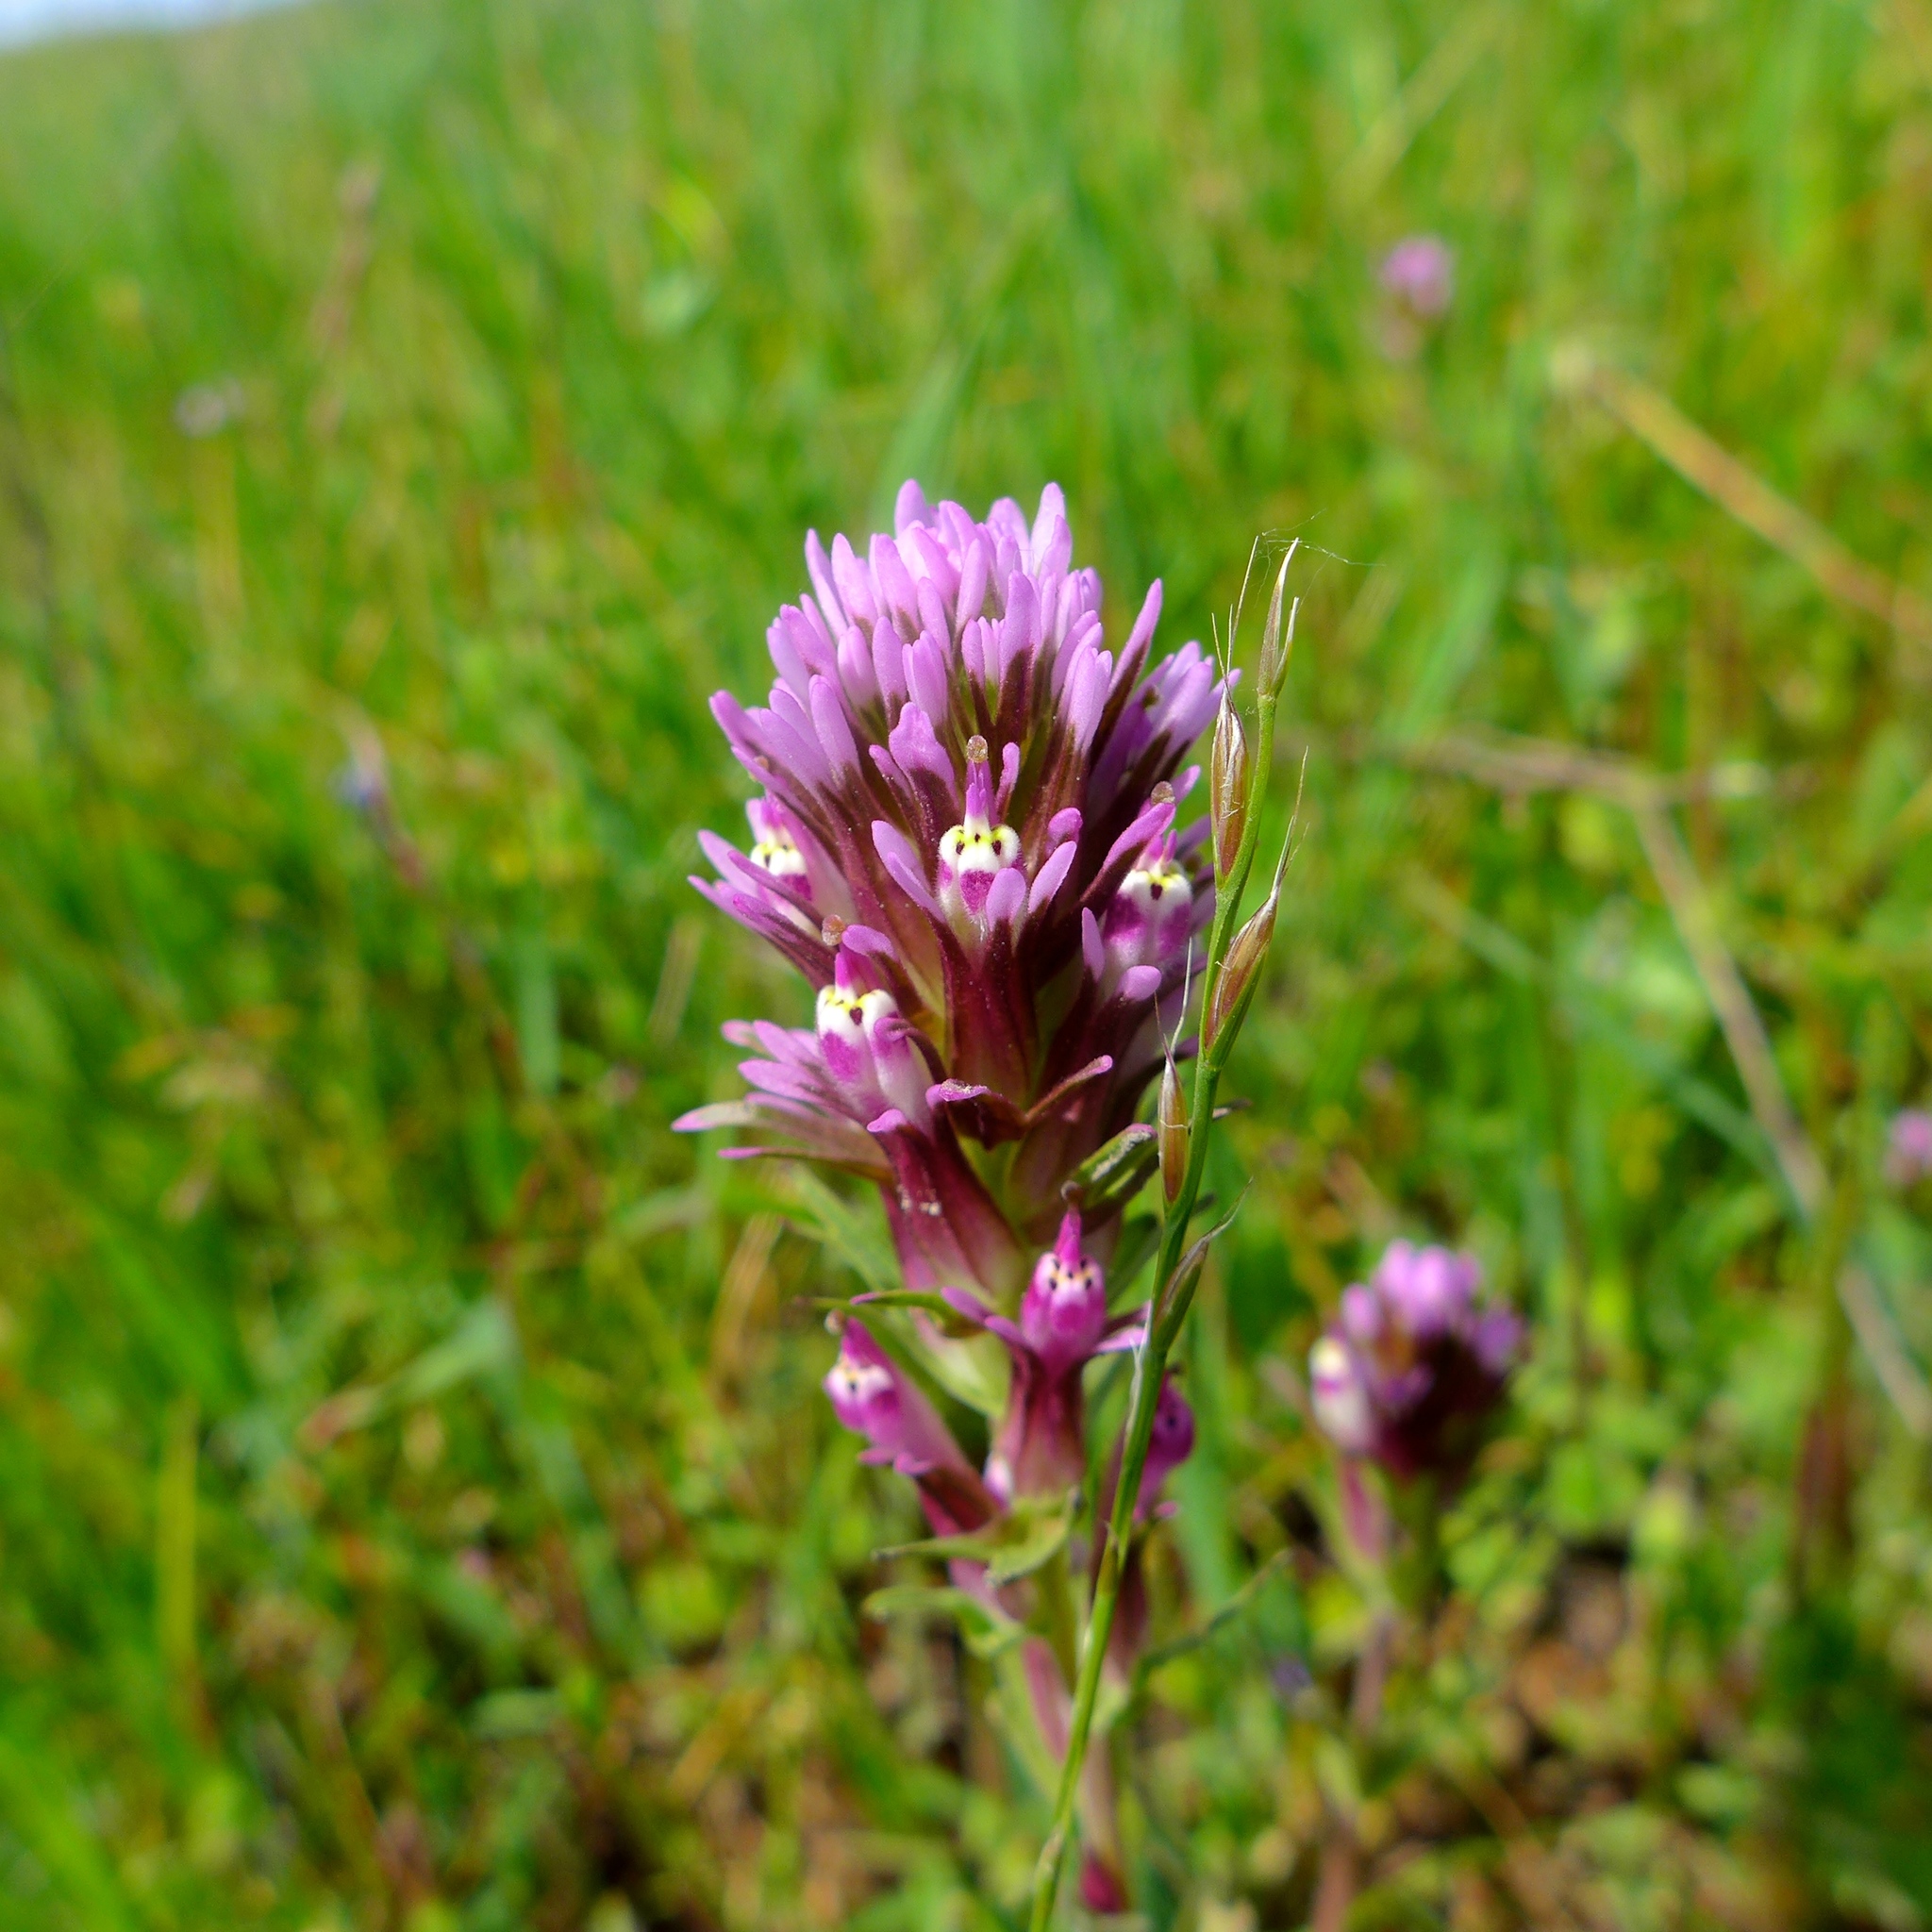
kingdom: Plantae
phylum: Tracheophyta
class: Magnoliopsida
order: Lamiales
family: Orobanchaceae
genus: Castilleja
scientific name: Castilleja densiflora
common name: Dense-flower indian paintbrush
